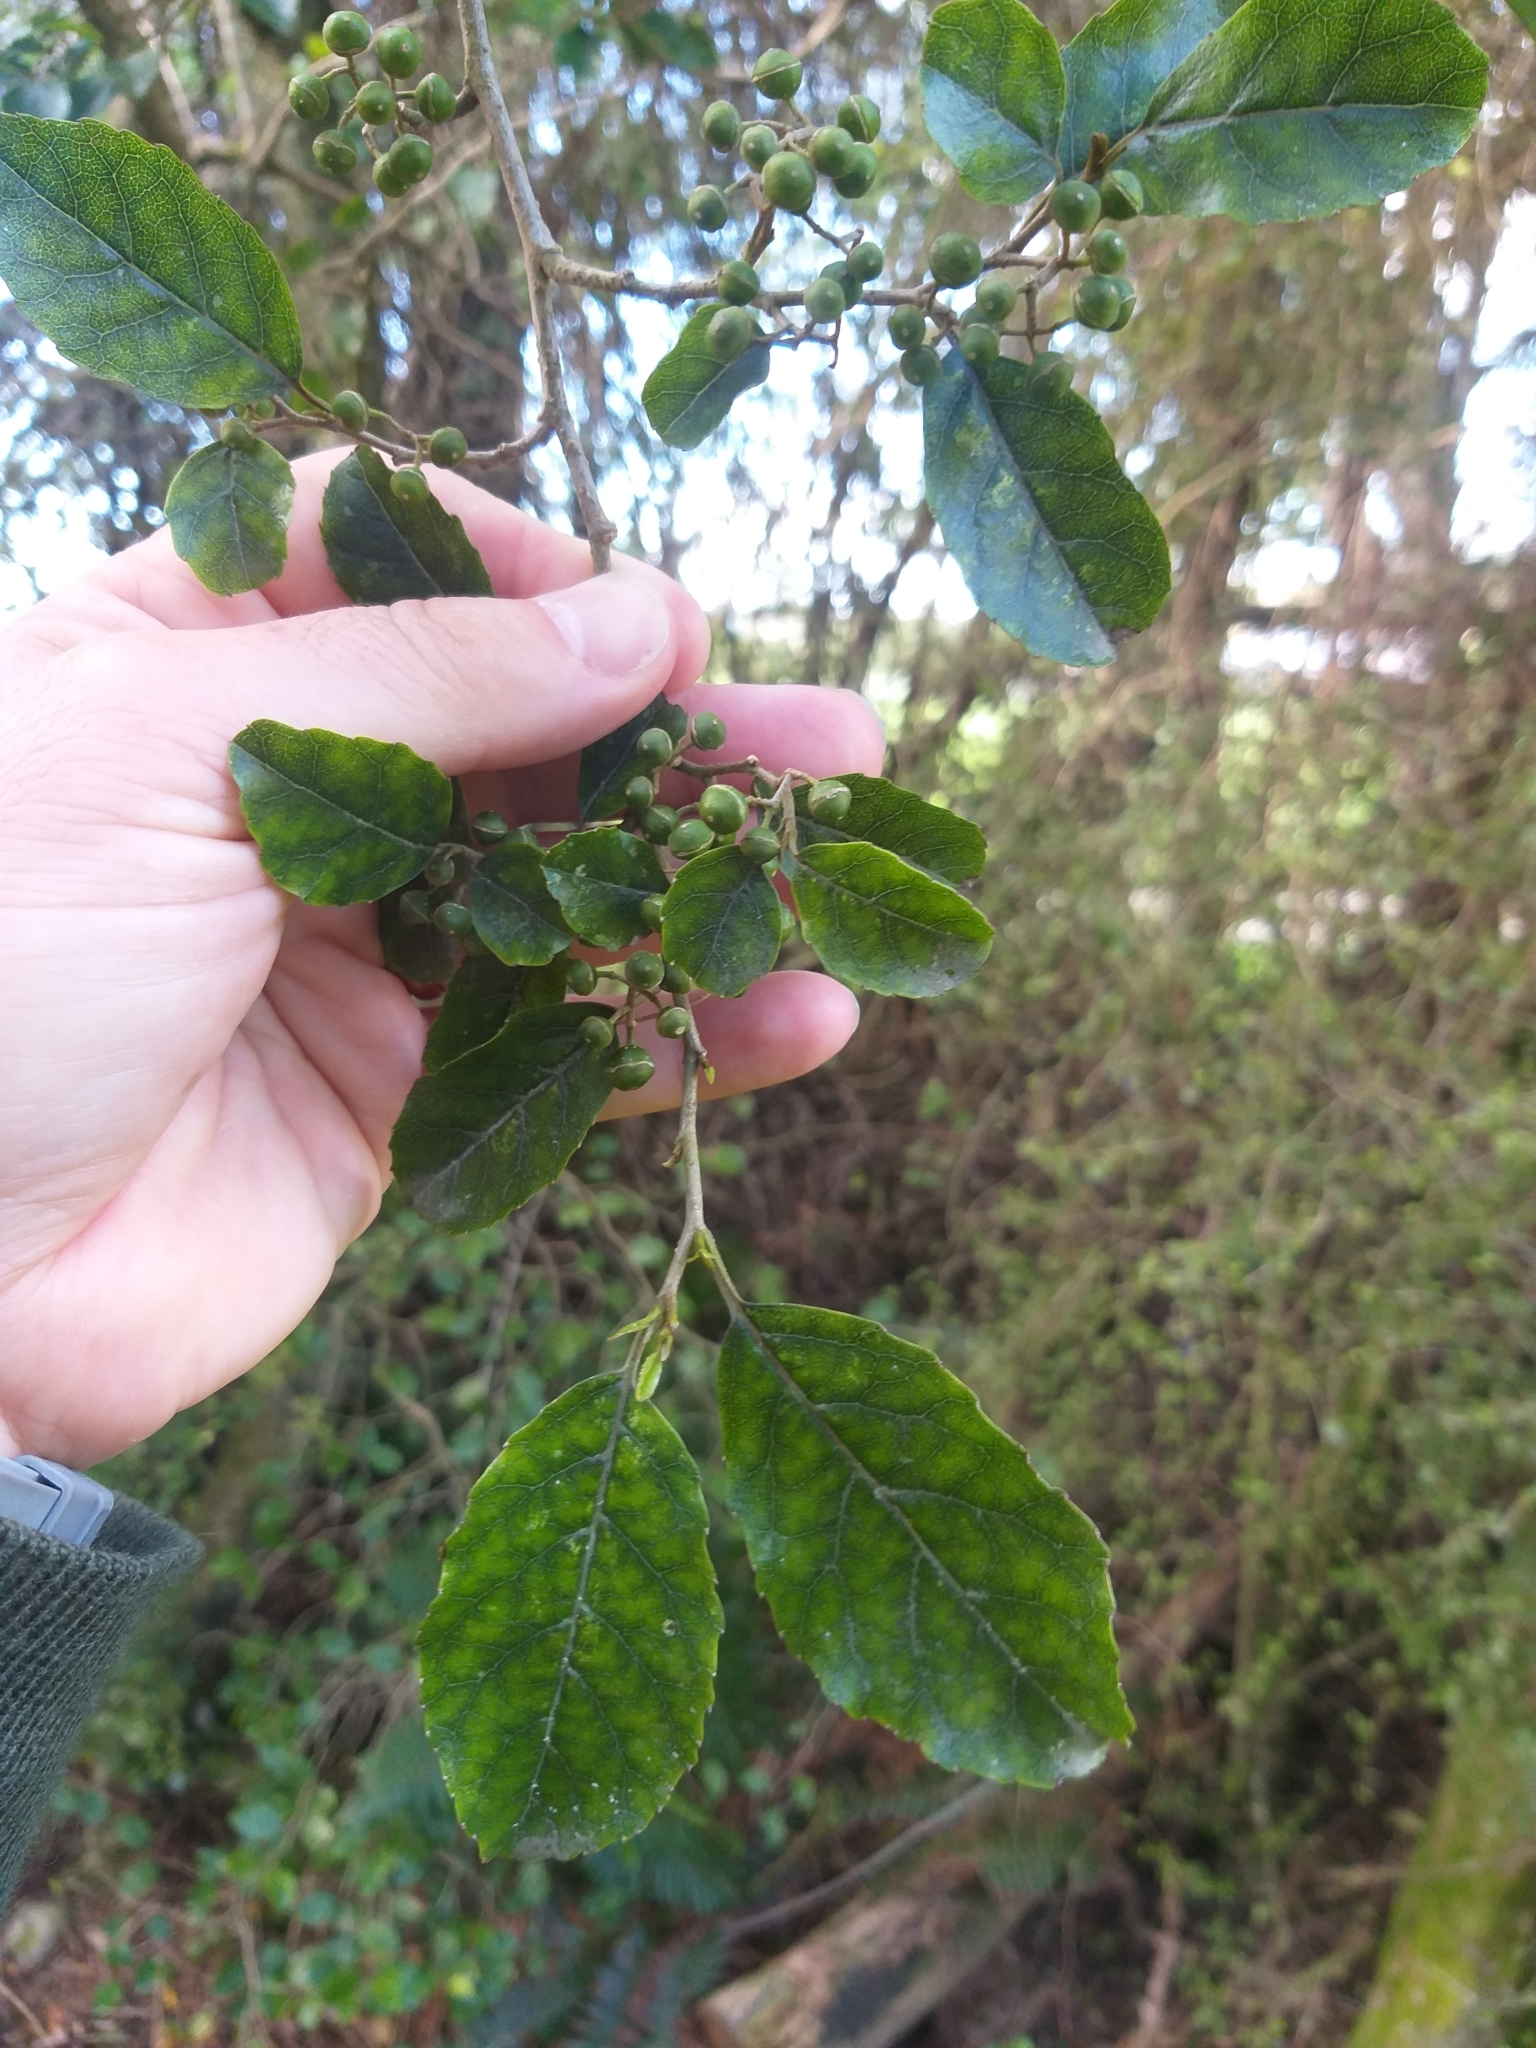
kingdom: Plantae
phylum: Tracheophyta
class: Magnoliopsida
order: Asterales
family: Rousseaceae
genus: Carpodetus
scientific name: Carpodetus serratus
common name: White mapau
